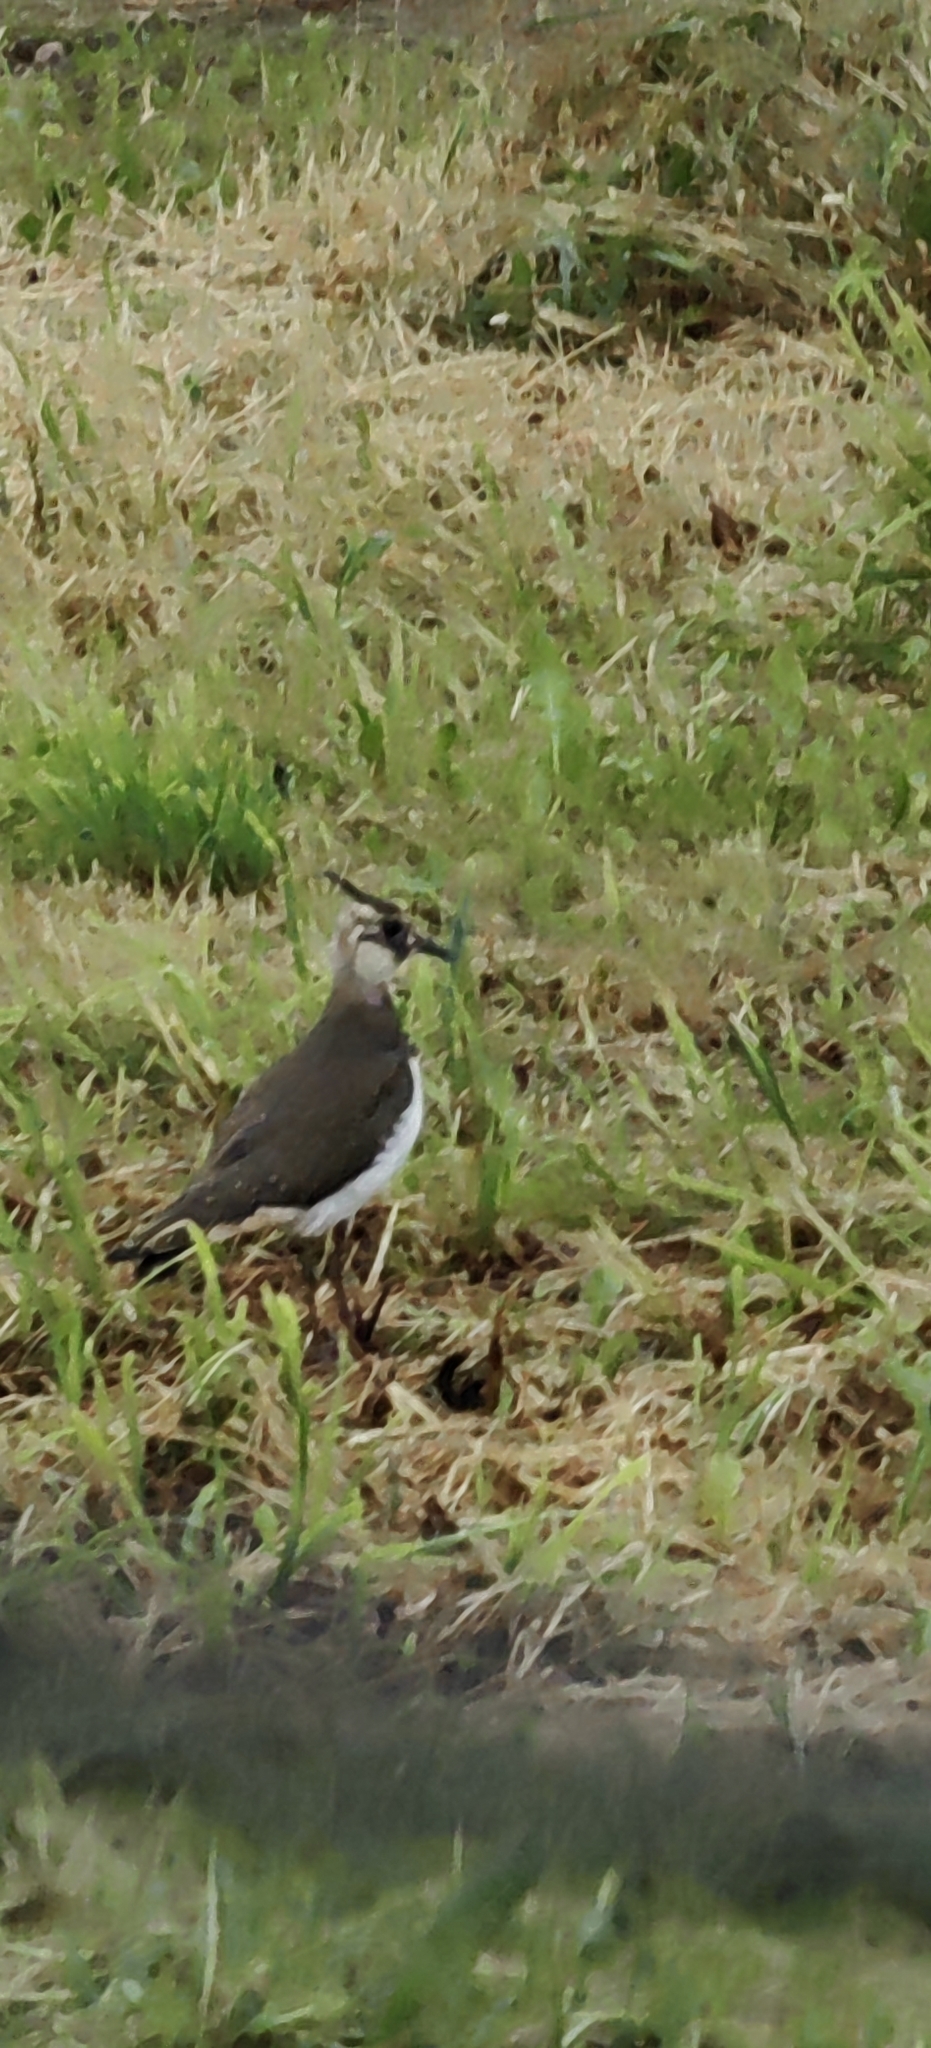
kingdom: Animalia
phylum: Chordata
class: Aves
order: Charadriiformes
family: Charadriidae
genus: Vanellus
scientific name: Vanellus vanellus
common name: Northern lapwing
